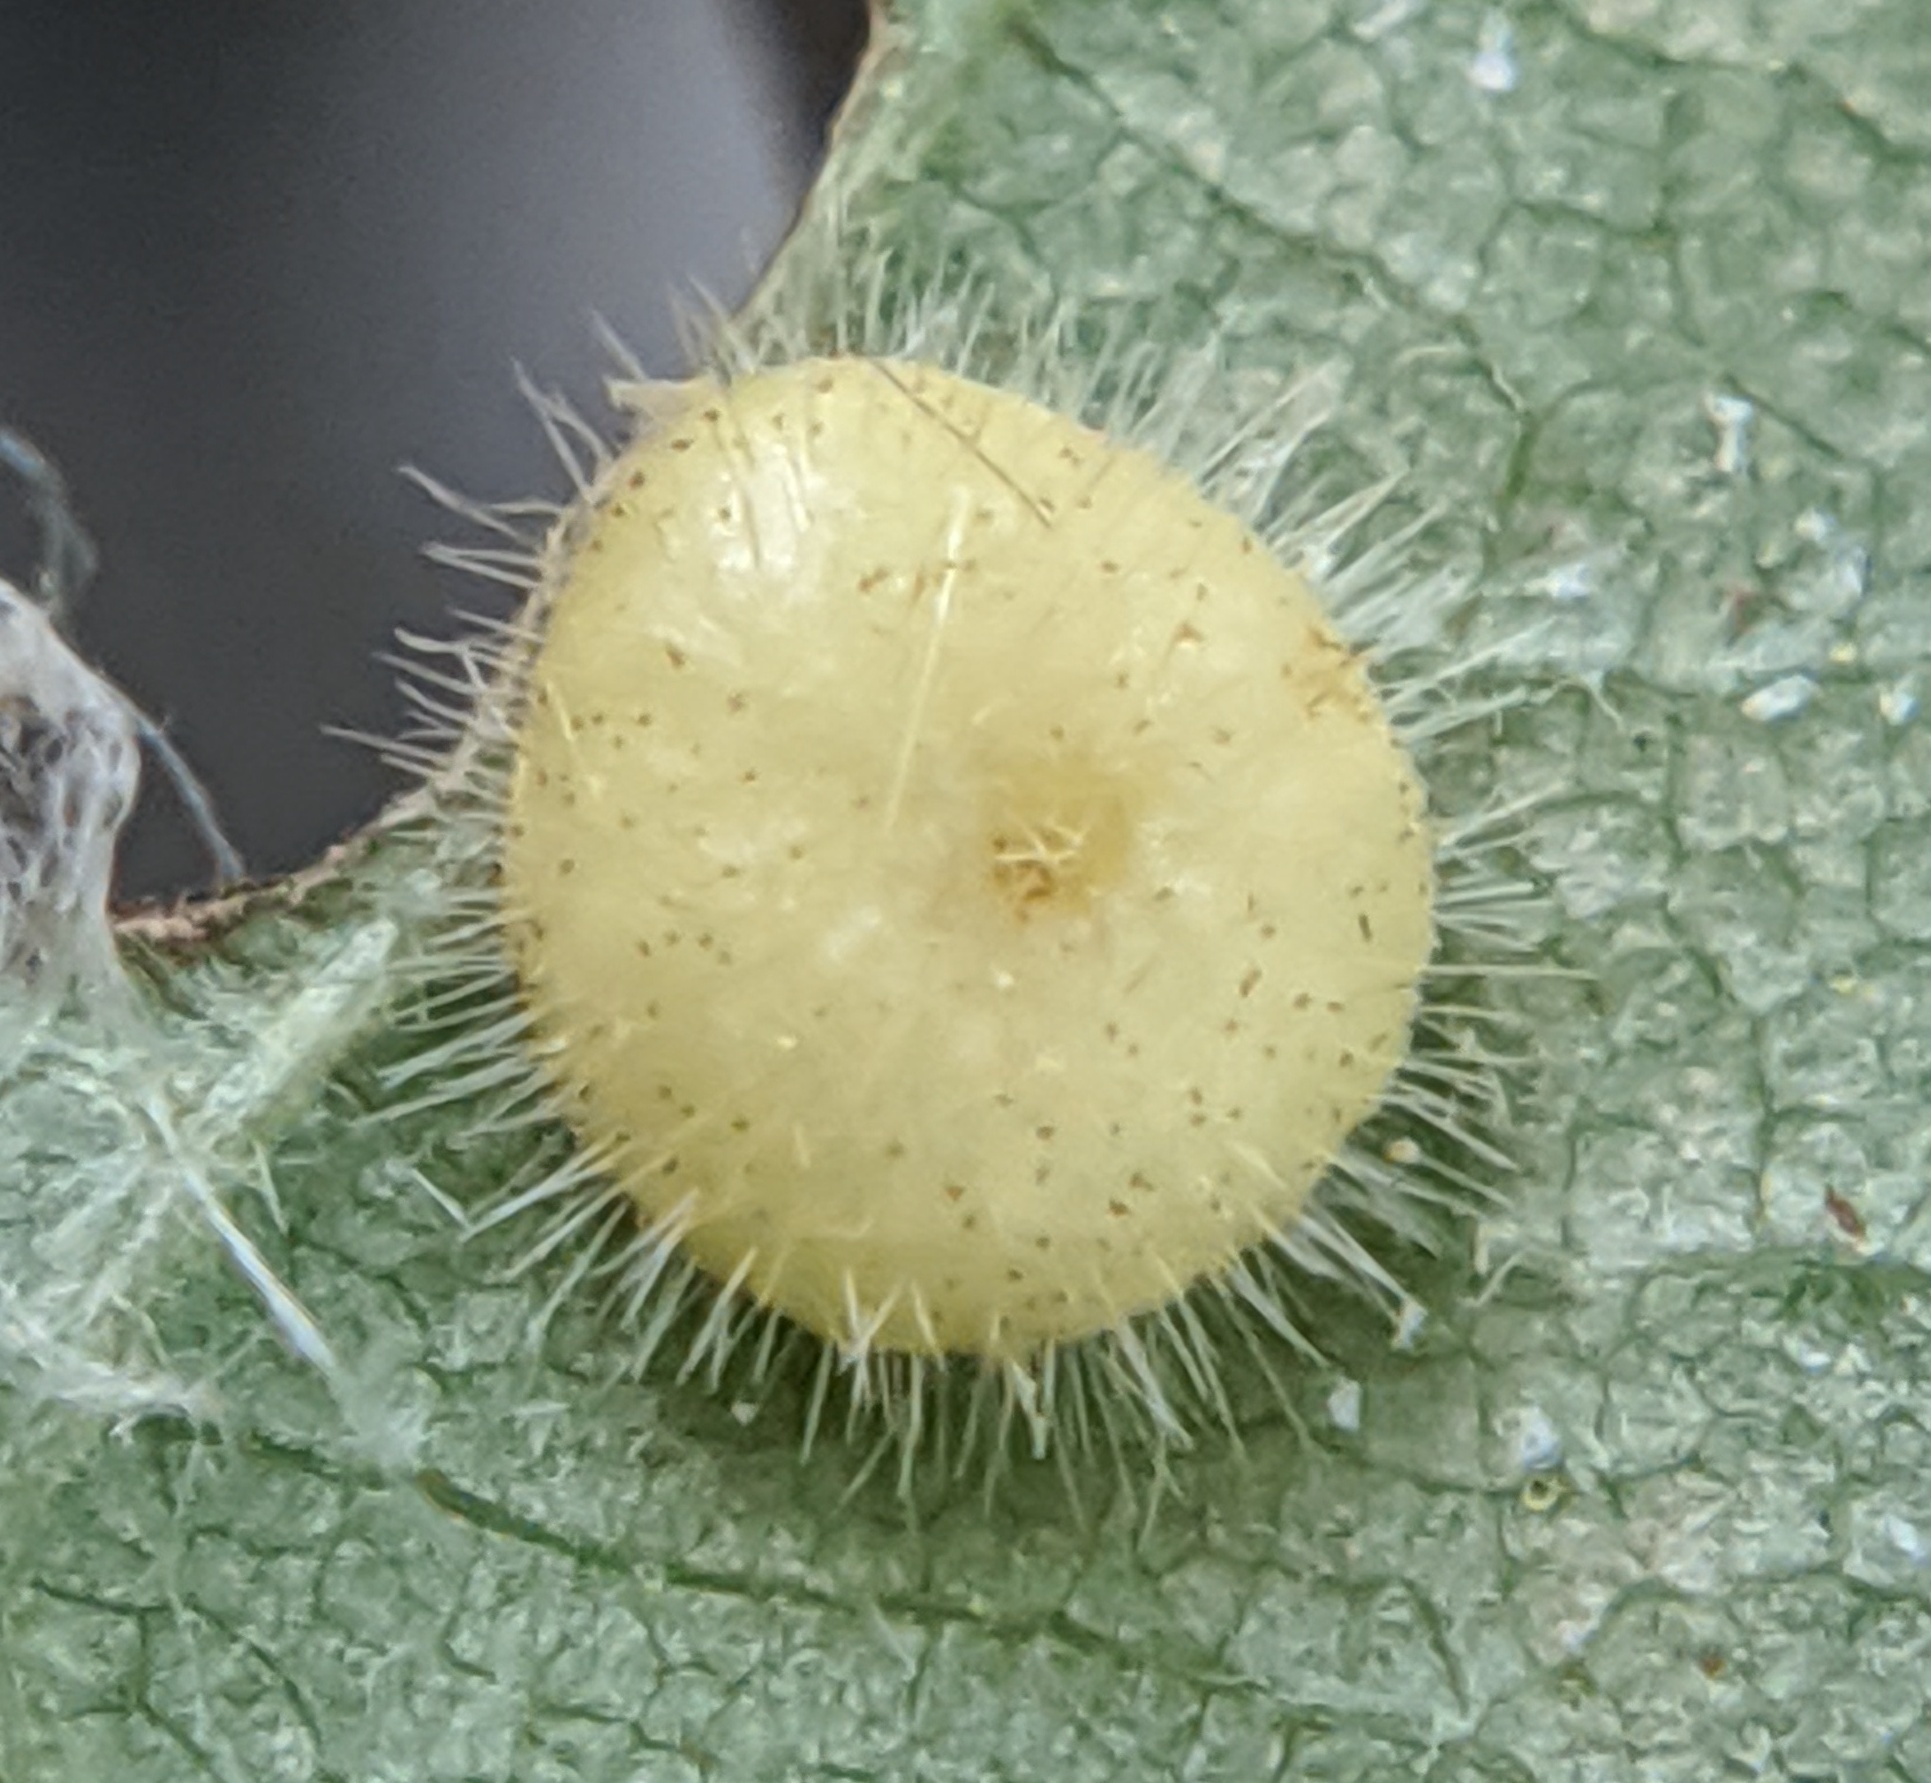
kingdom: Animalia
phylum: Arthropoda
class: Insecta
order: Diptera
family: Cecidomyiidae
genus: Caryomyia
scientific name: Caryomyia thompsoni
